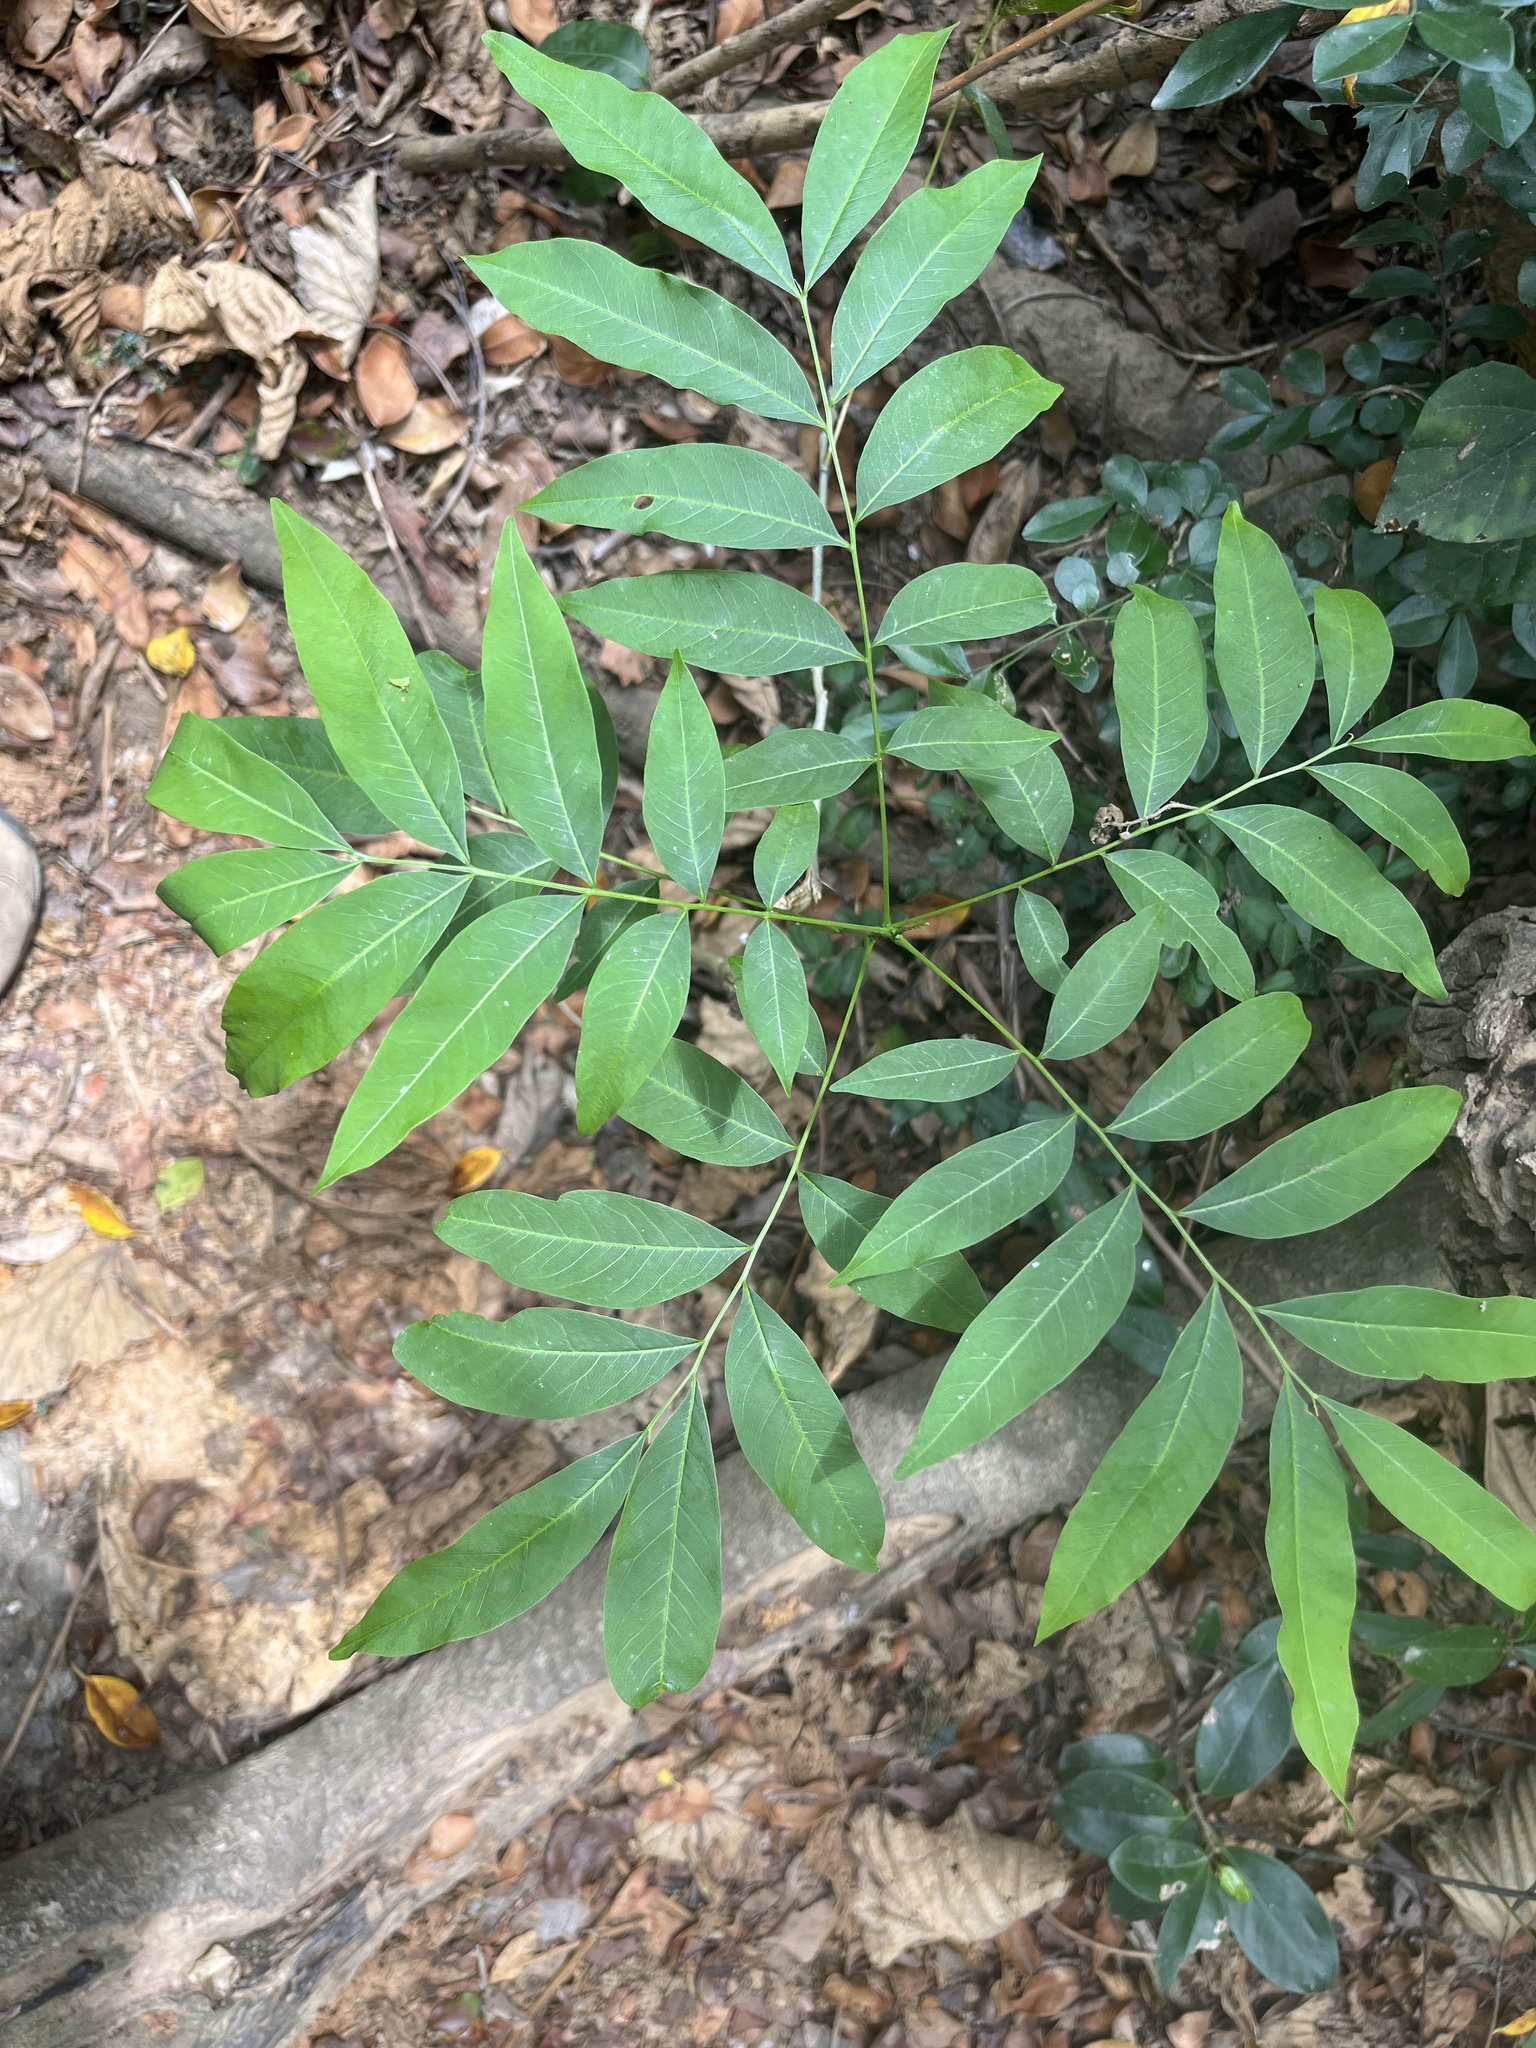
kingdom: Plantae
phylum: Tracheophyta
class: Magnoliopsida
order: Sapindales
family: Sapindaceae
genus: Sapindus
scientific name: Sapindus mukorossi
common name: Chinese soapberry
